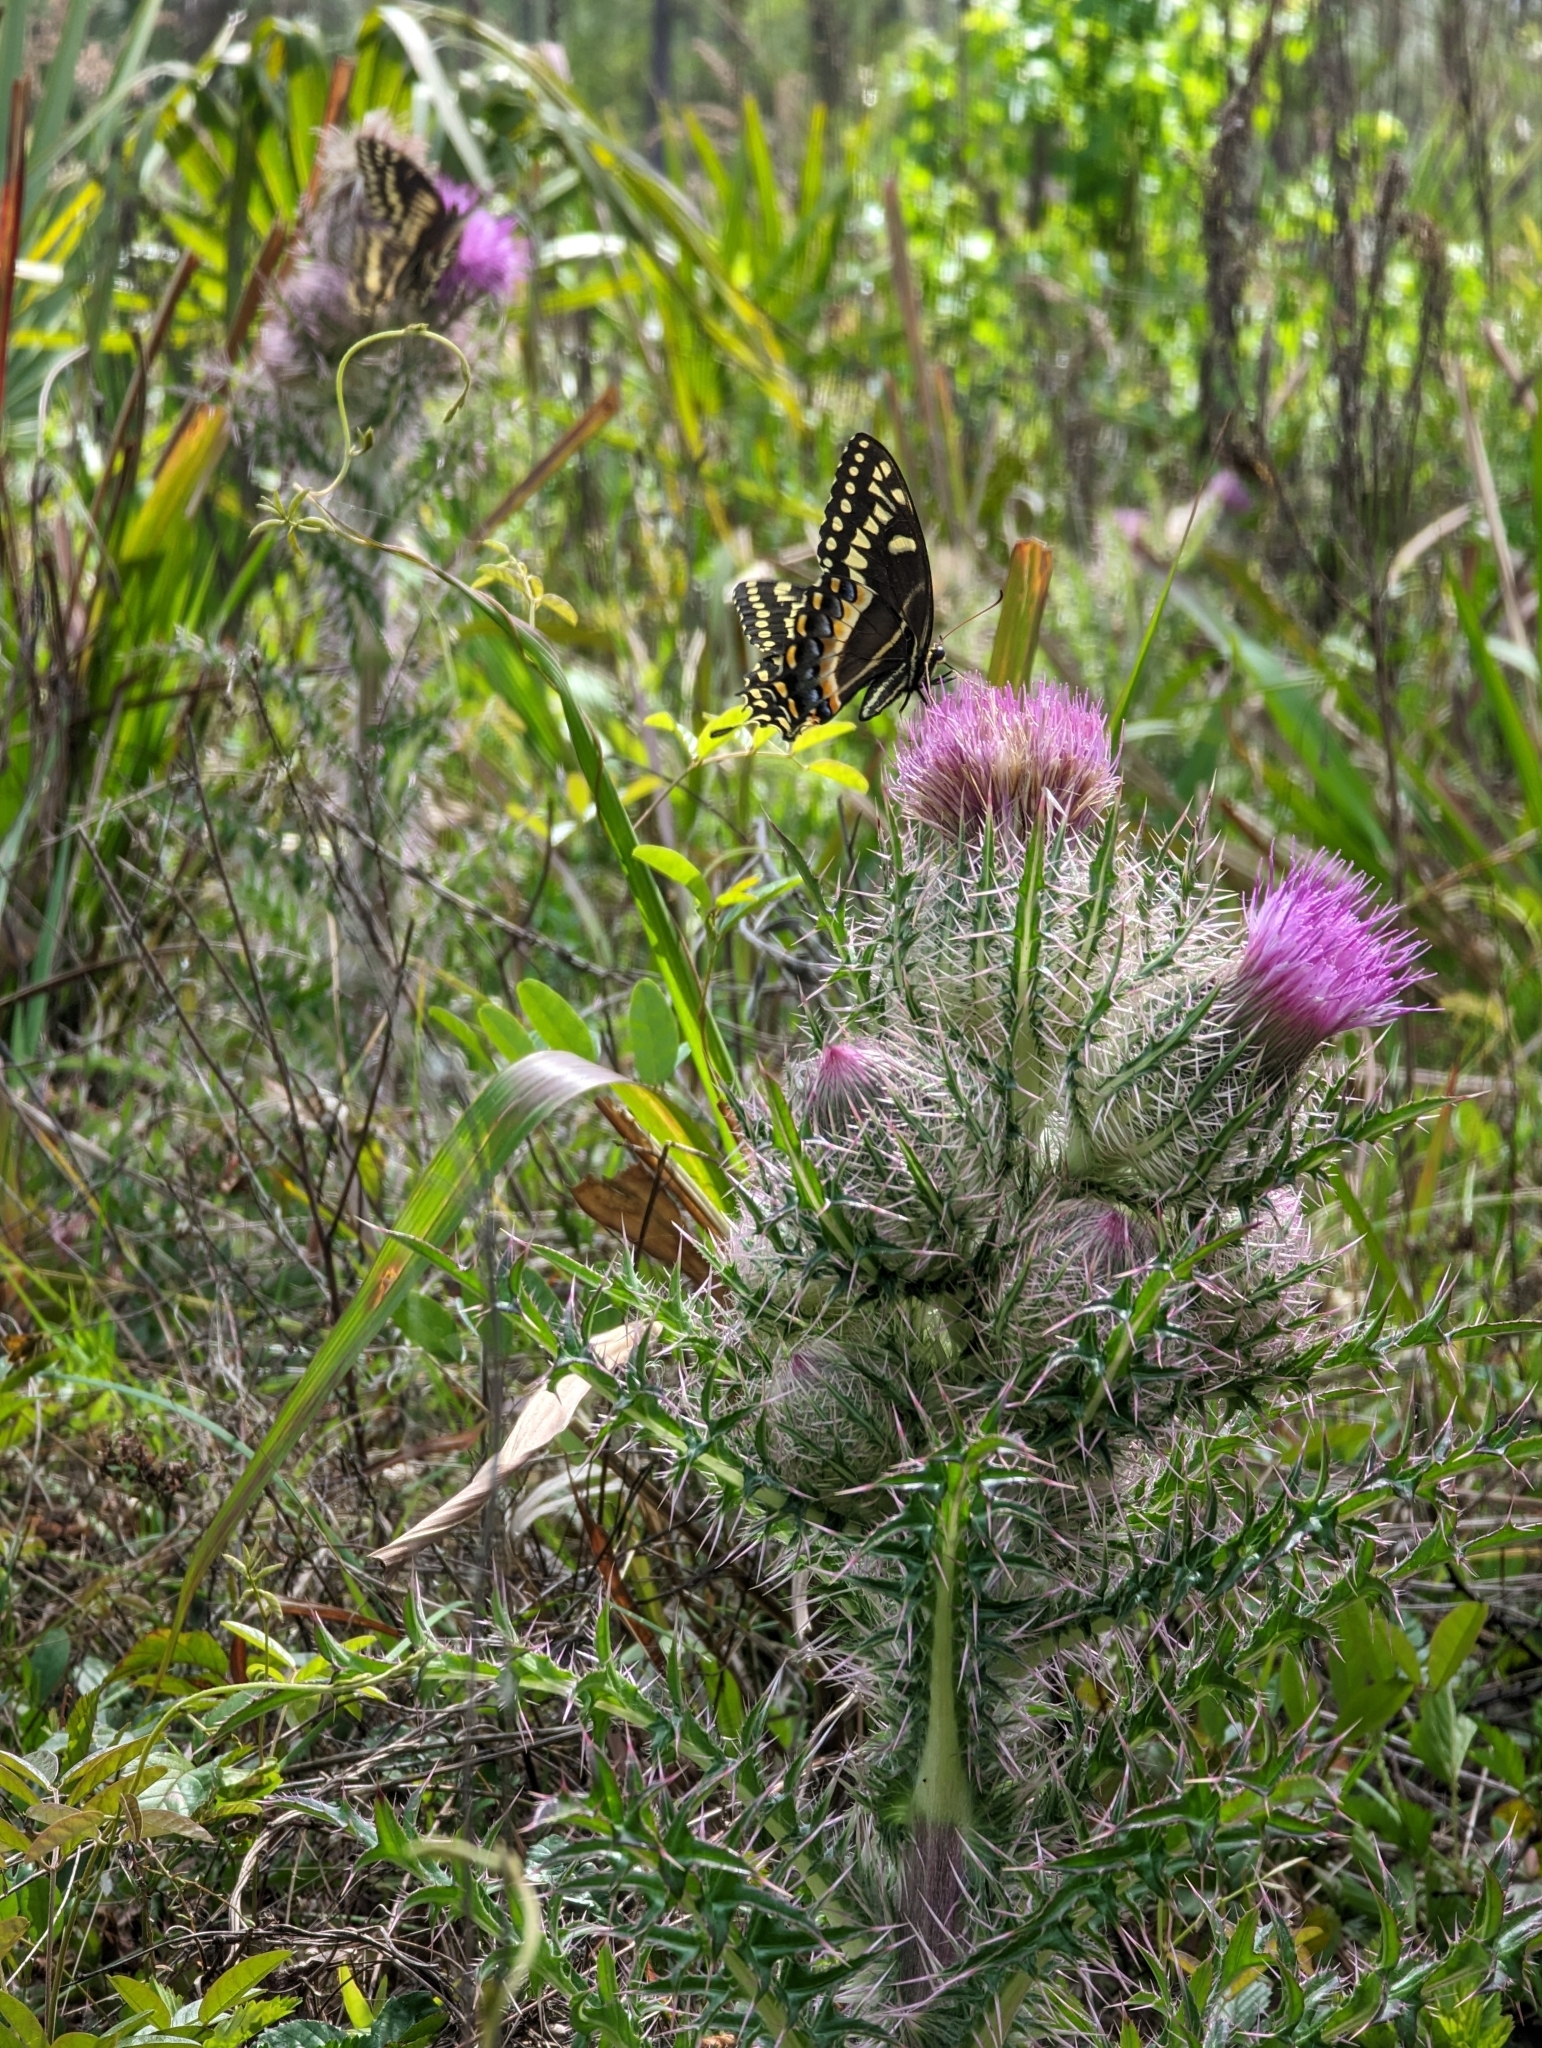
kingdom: Animalia
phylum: Arthropoda
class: Insecta
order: Lepidoptera
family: Papilionidae
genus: Papilio
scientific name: Papilio palamedes
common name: Palamedes swallowtail
